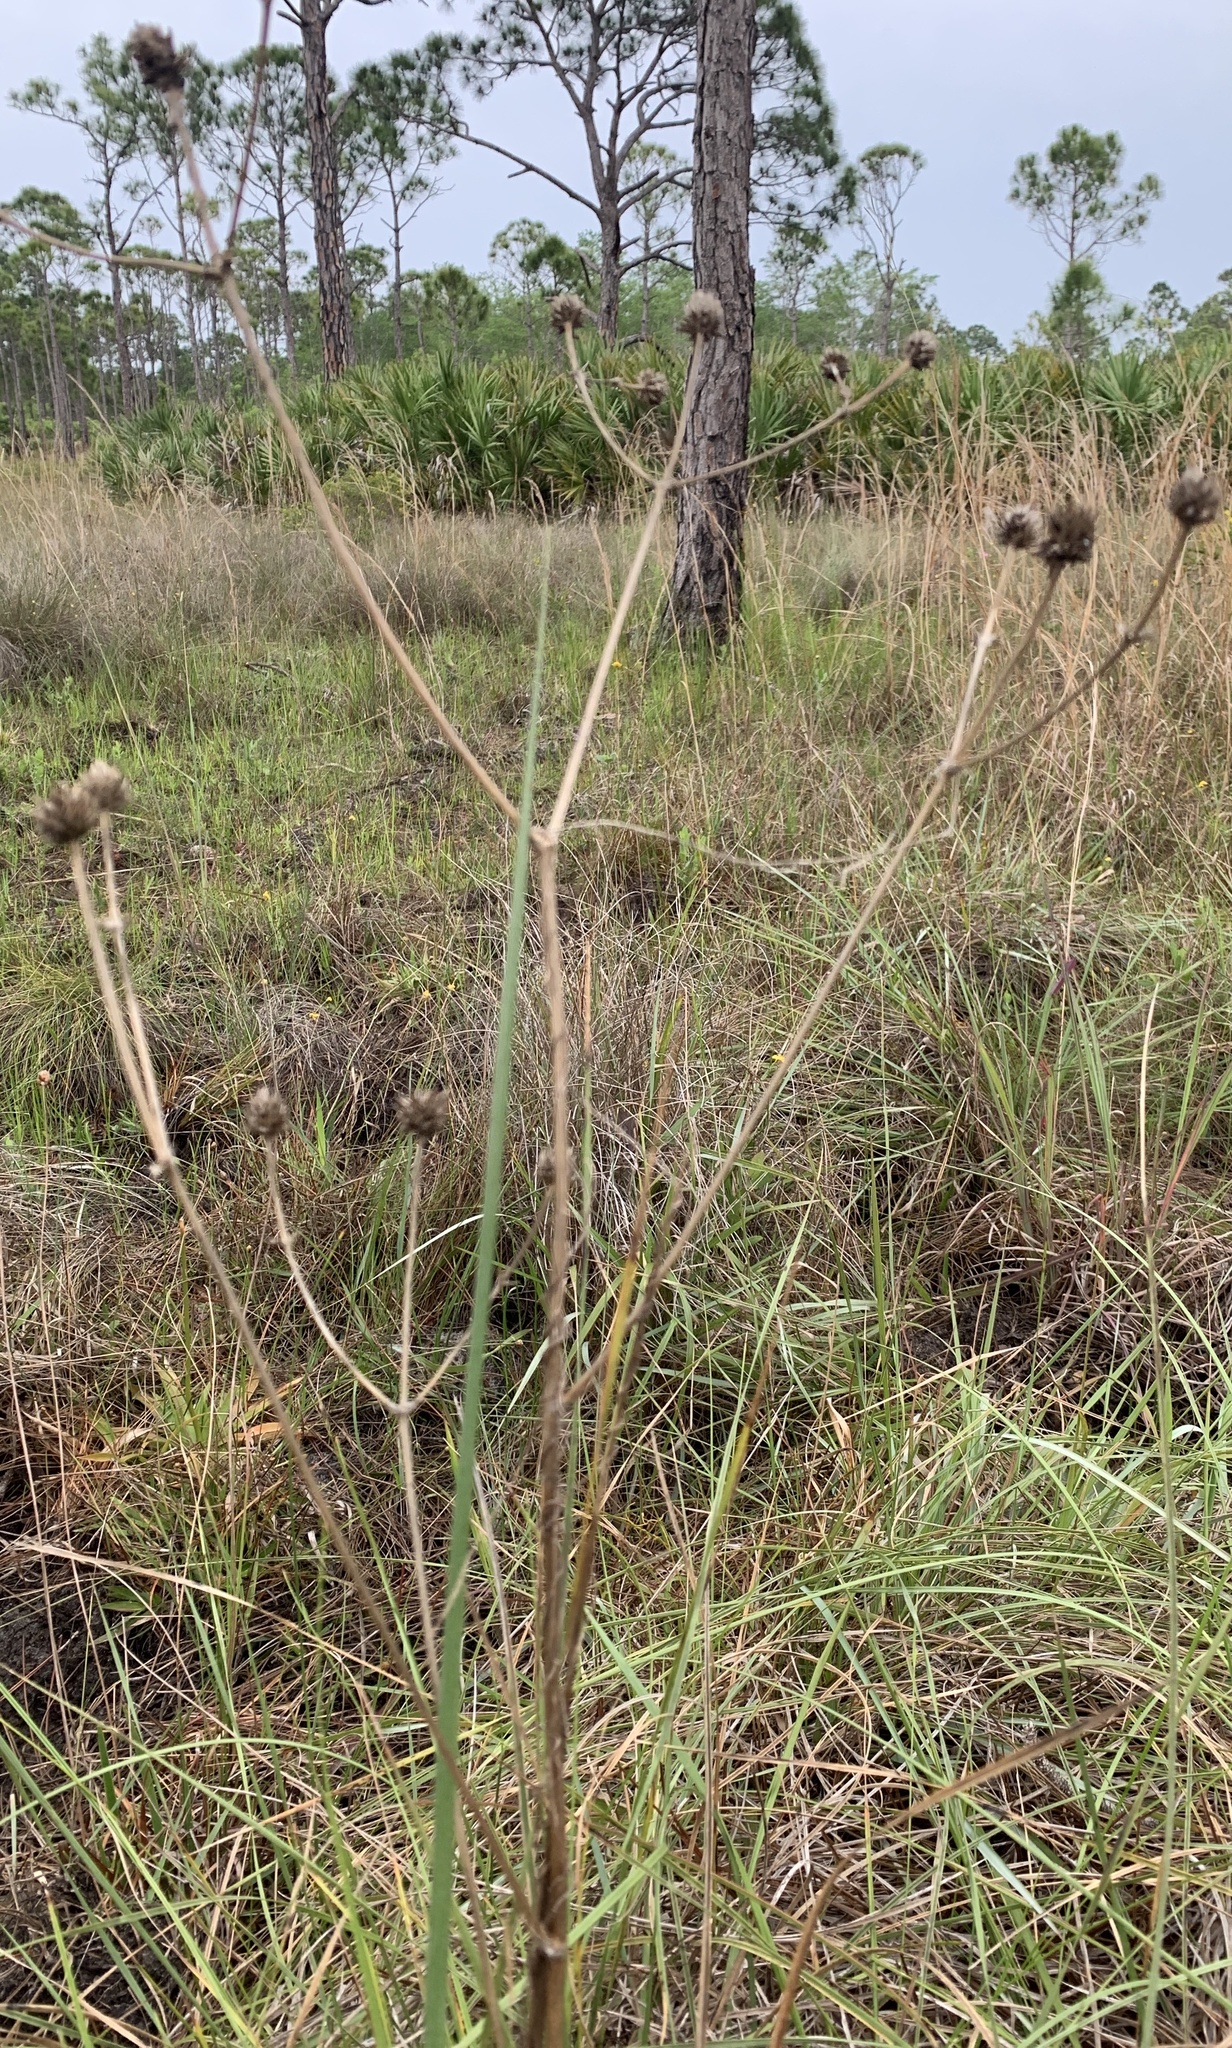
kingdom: Plantae
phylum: Tracheophyta
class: Magnoliopsida
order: Apiales
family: Apiaceae
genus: Eryngium
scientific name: Eryngium yuccifolium
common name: Button eryngo
